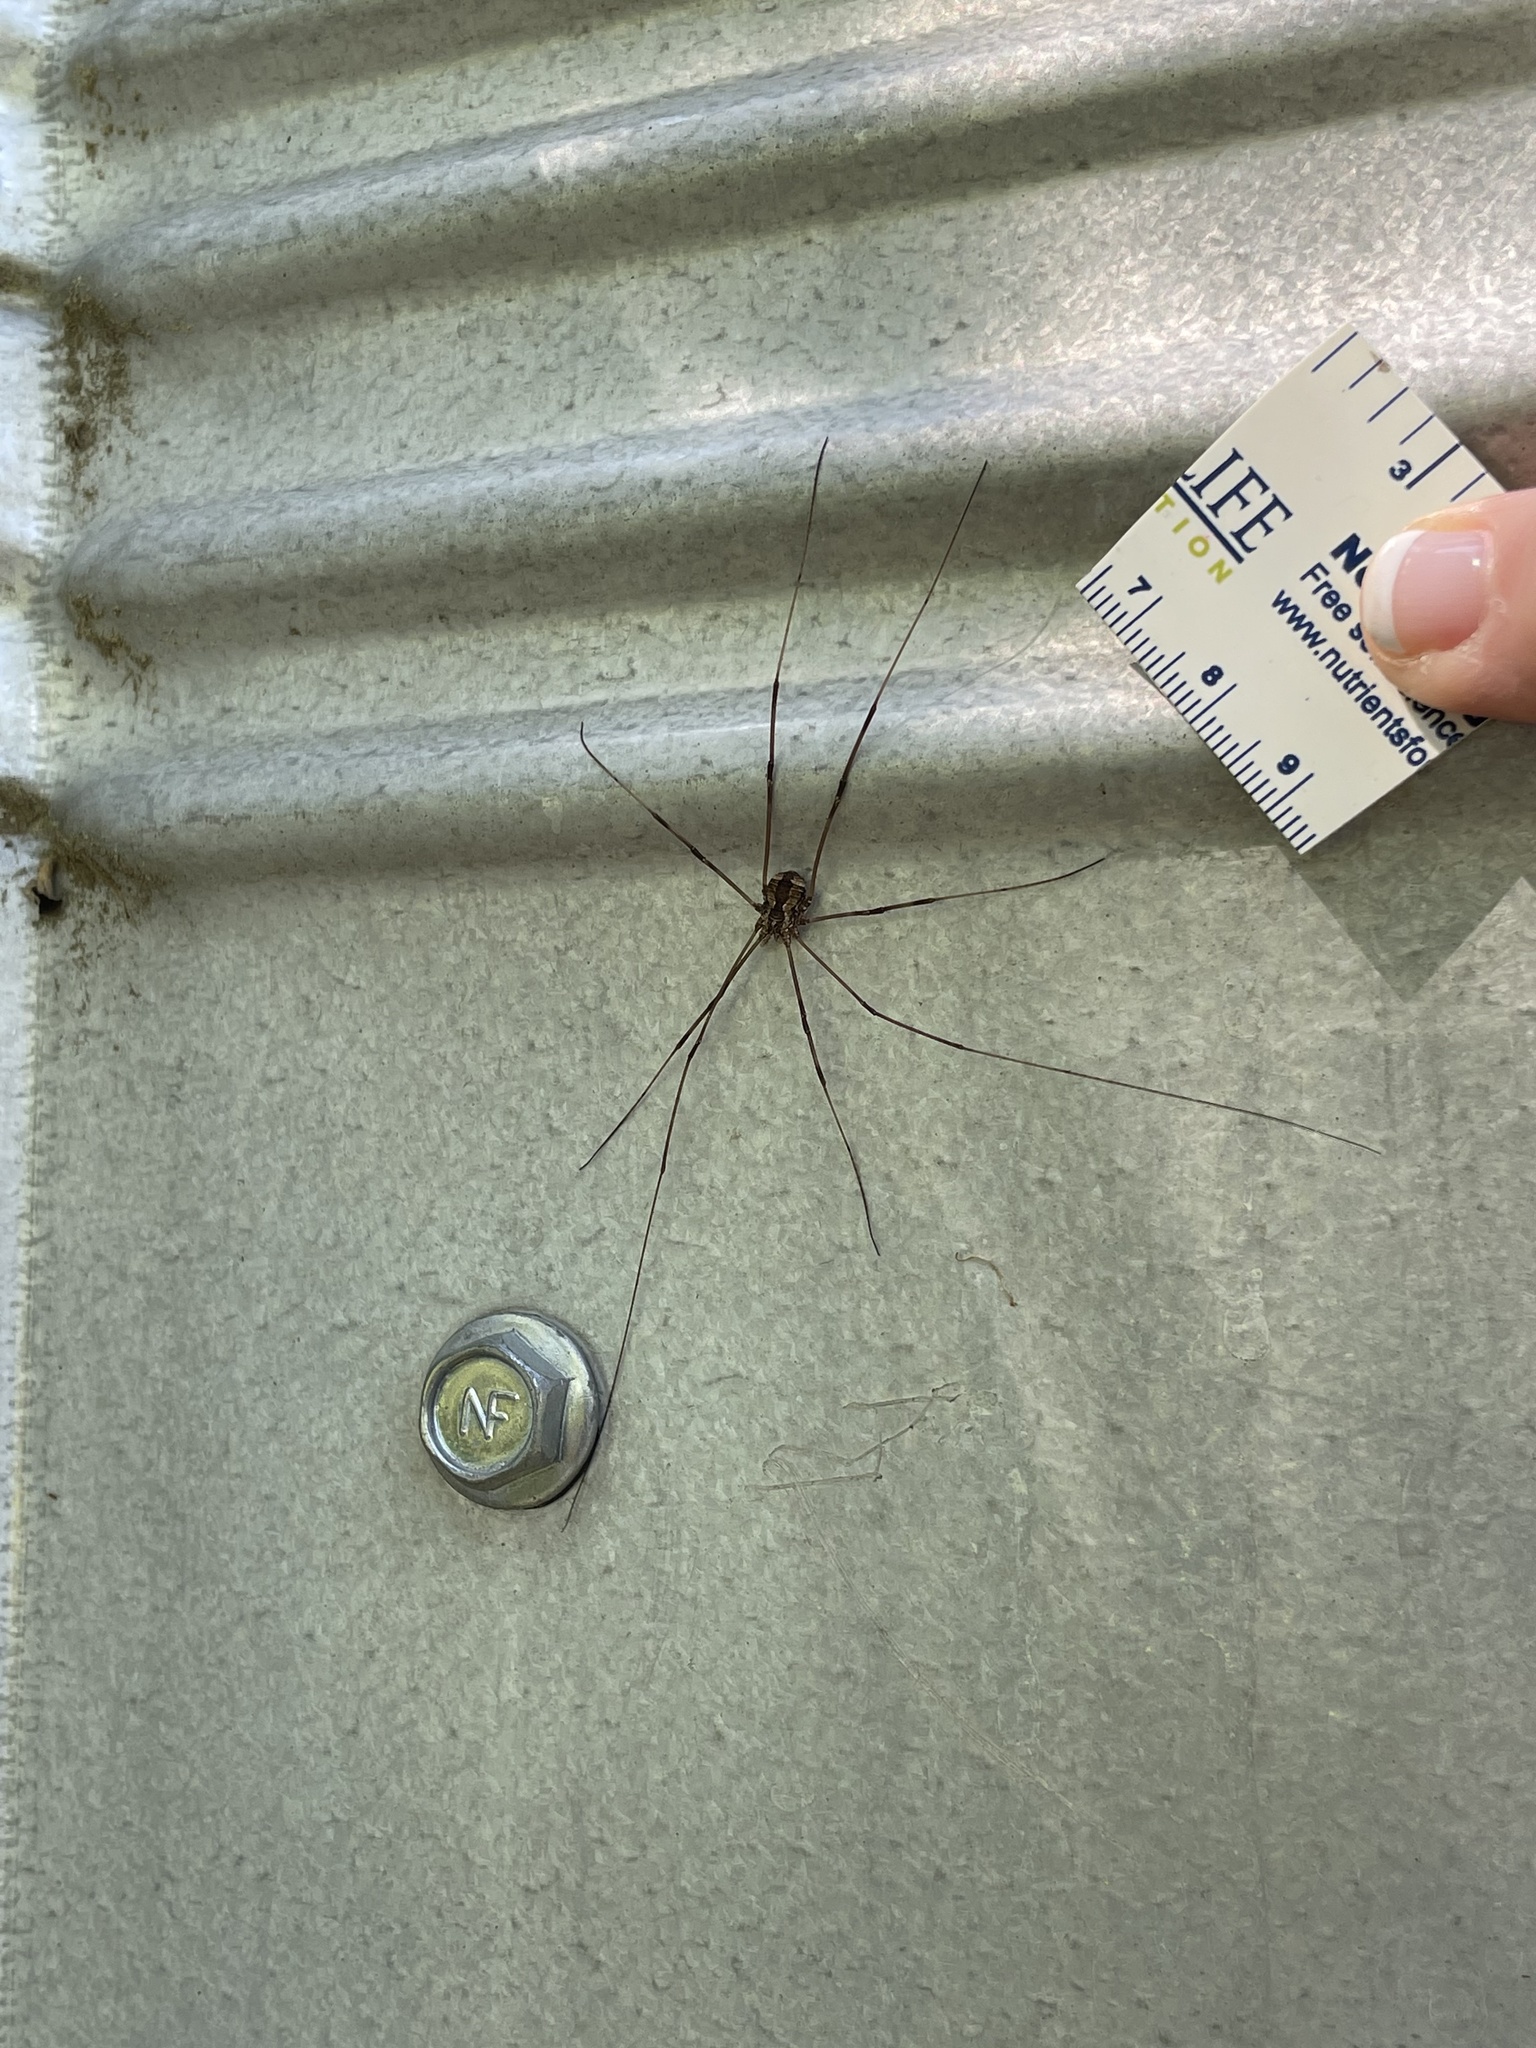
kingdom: Animalia
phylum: Arthropoda
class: Arachnida
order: Opiliones
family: Sclerosomatidae
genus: Leiobunum
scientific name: Leiobunum flavum
